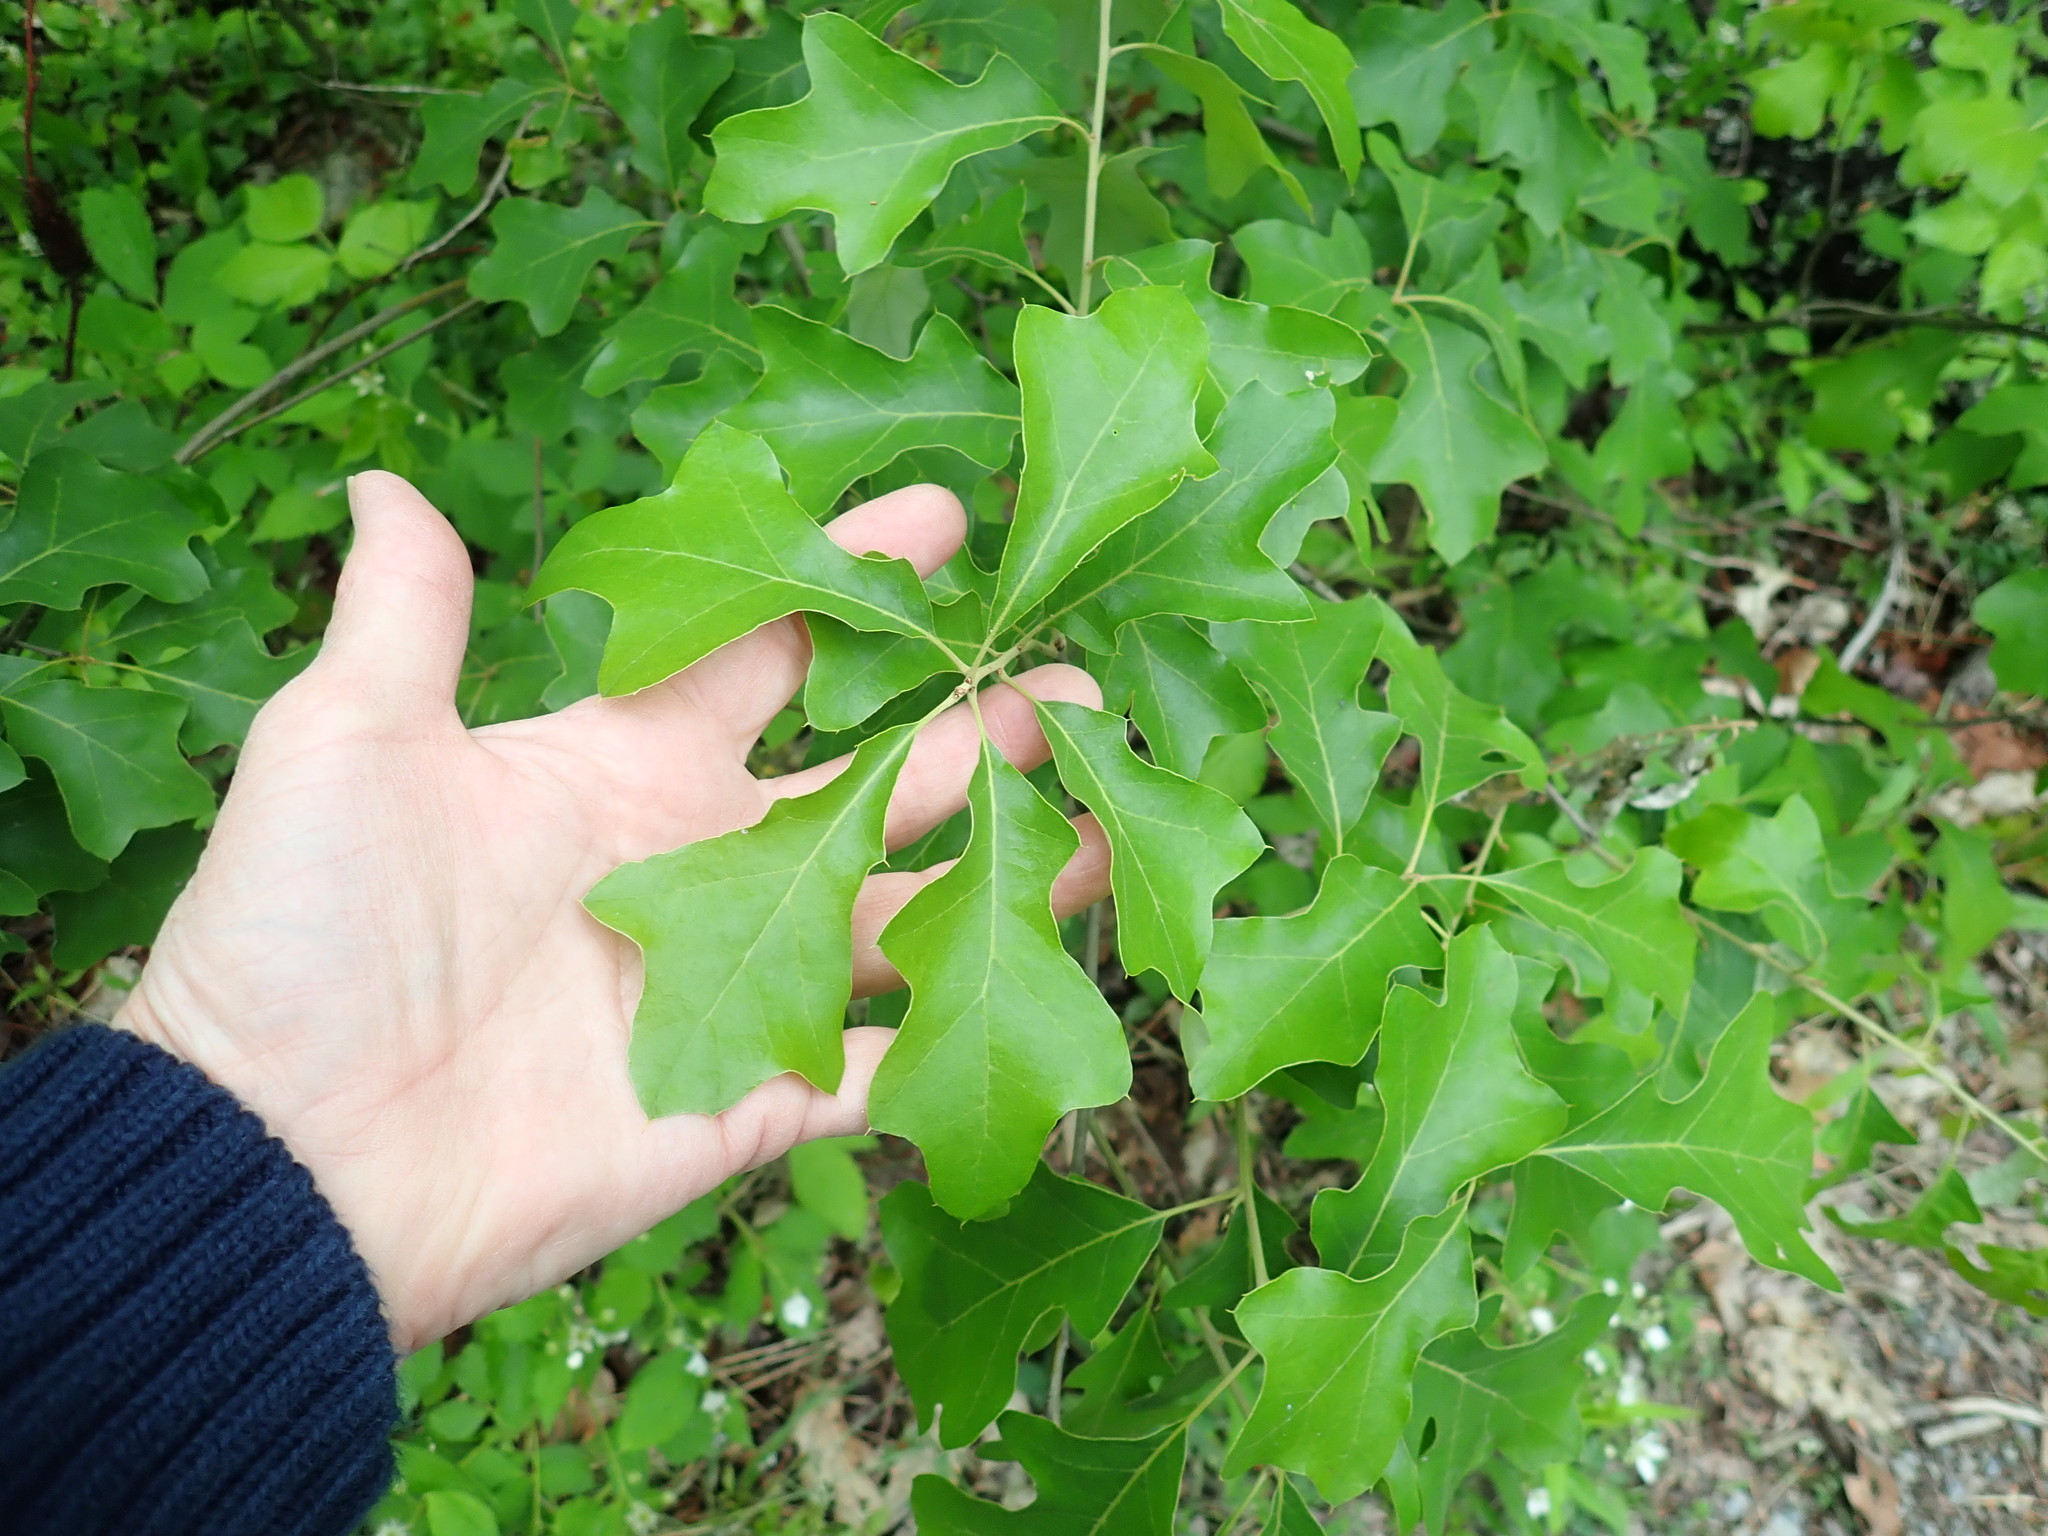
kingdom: Plantae
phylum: Tracheophyta
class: Magnoliopsida
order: Fagales
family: Fagaceae
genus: Quercus
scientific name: Quercus ilicifolia
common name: Bear oak
